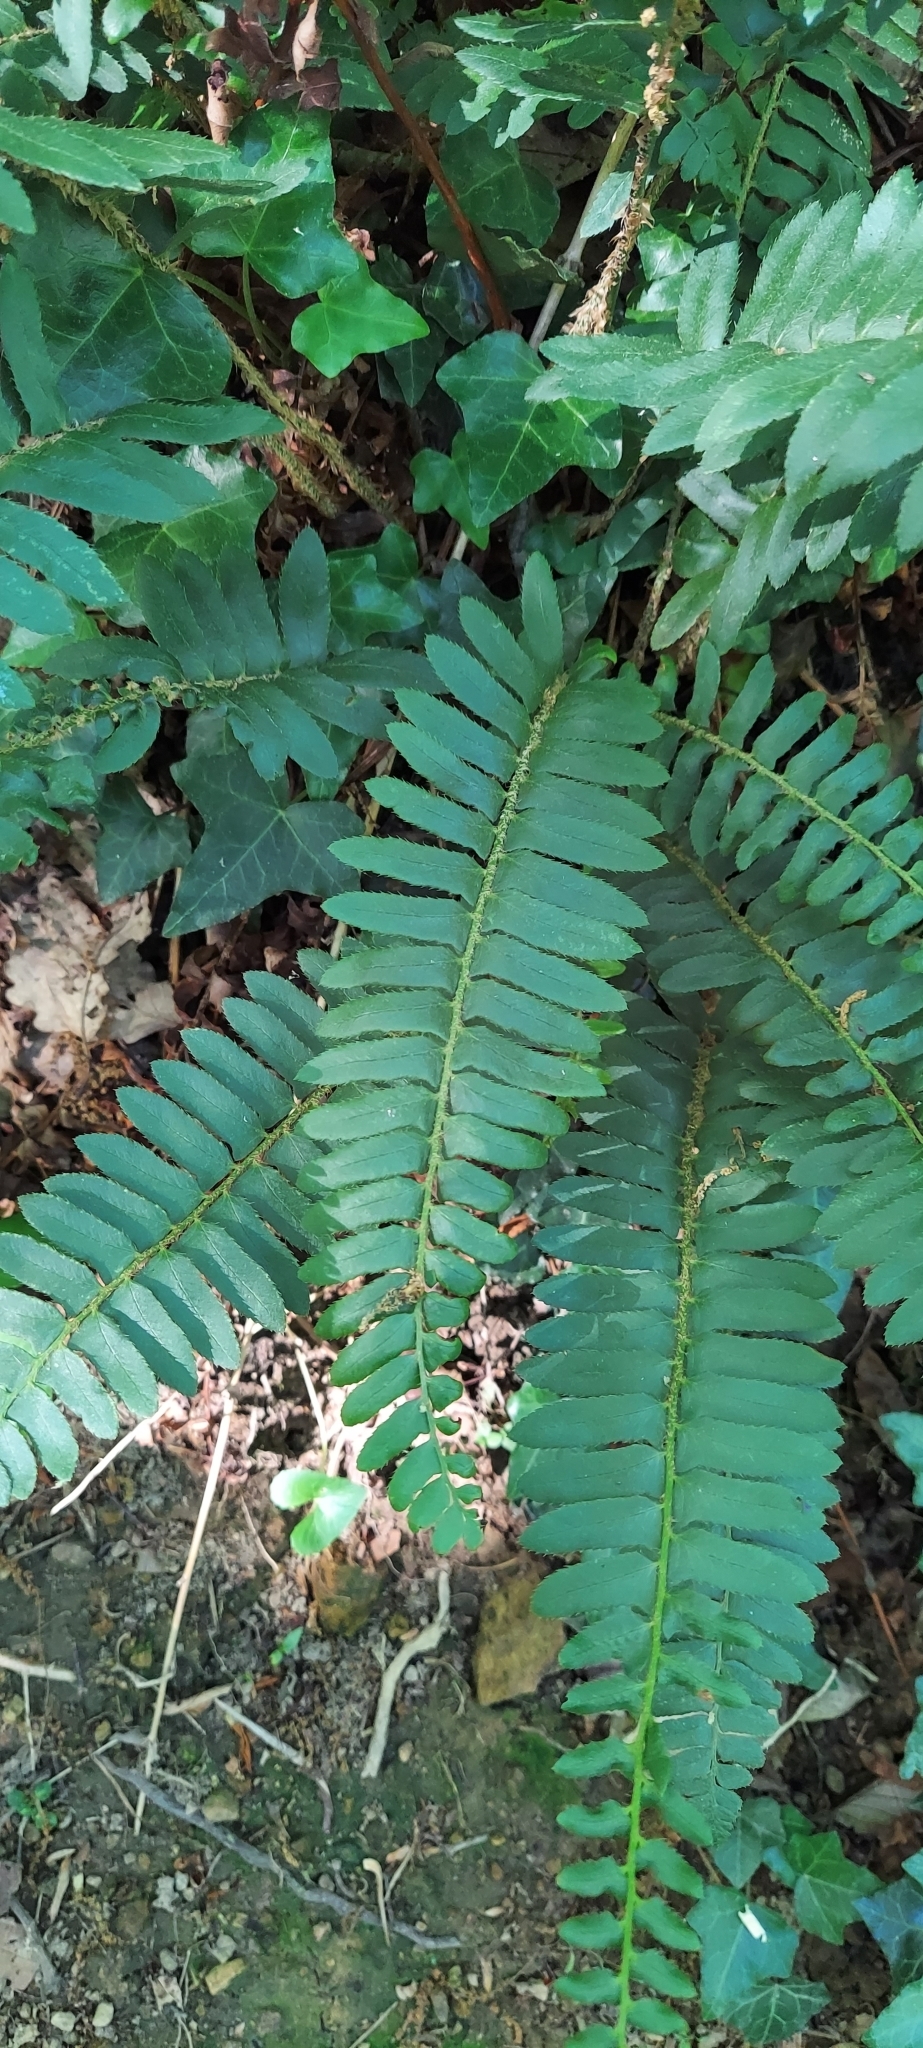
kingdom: Plantae
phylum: Tracheophyta
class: Polypodiopsida
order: Polypodiales
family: Dryopteridaceae
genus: Polystichum
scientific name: Polystichum acrostichoides
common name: Christmas fern
